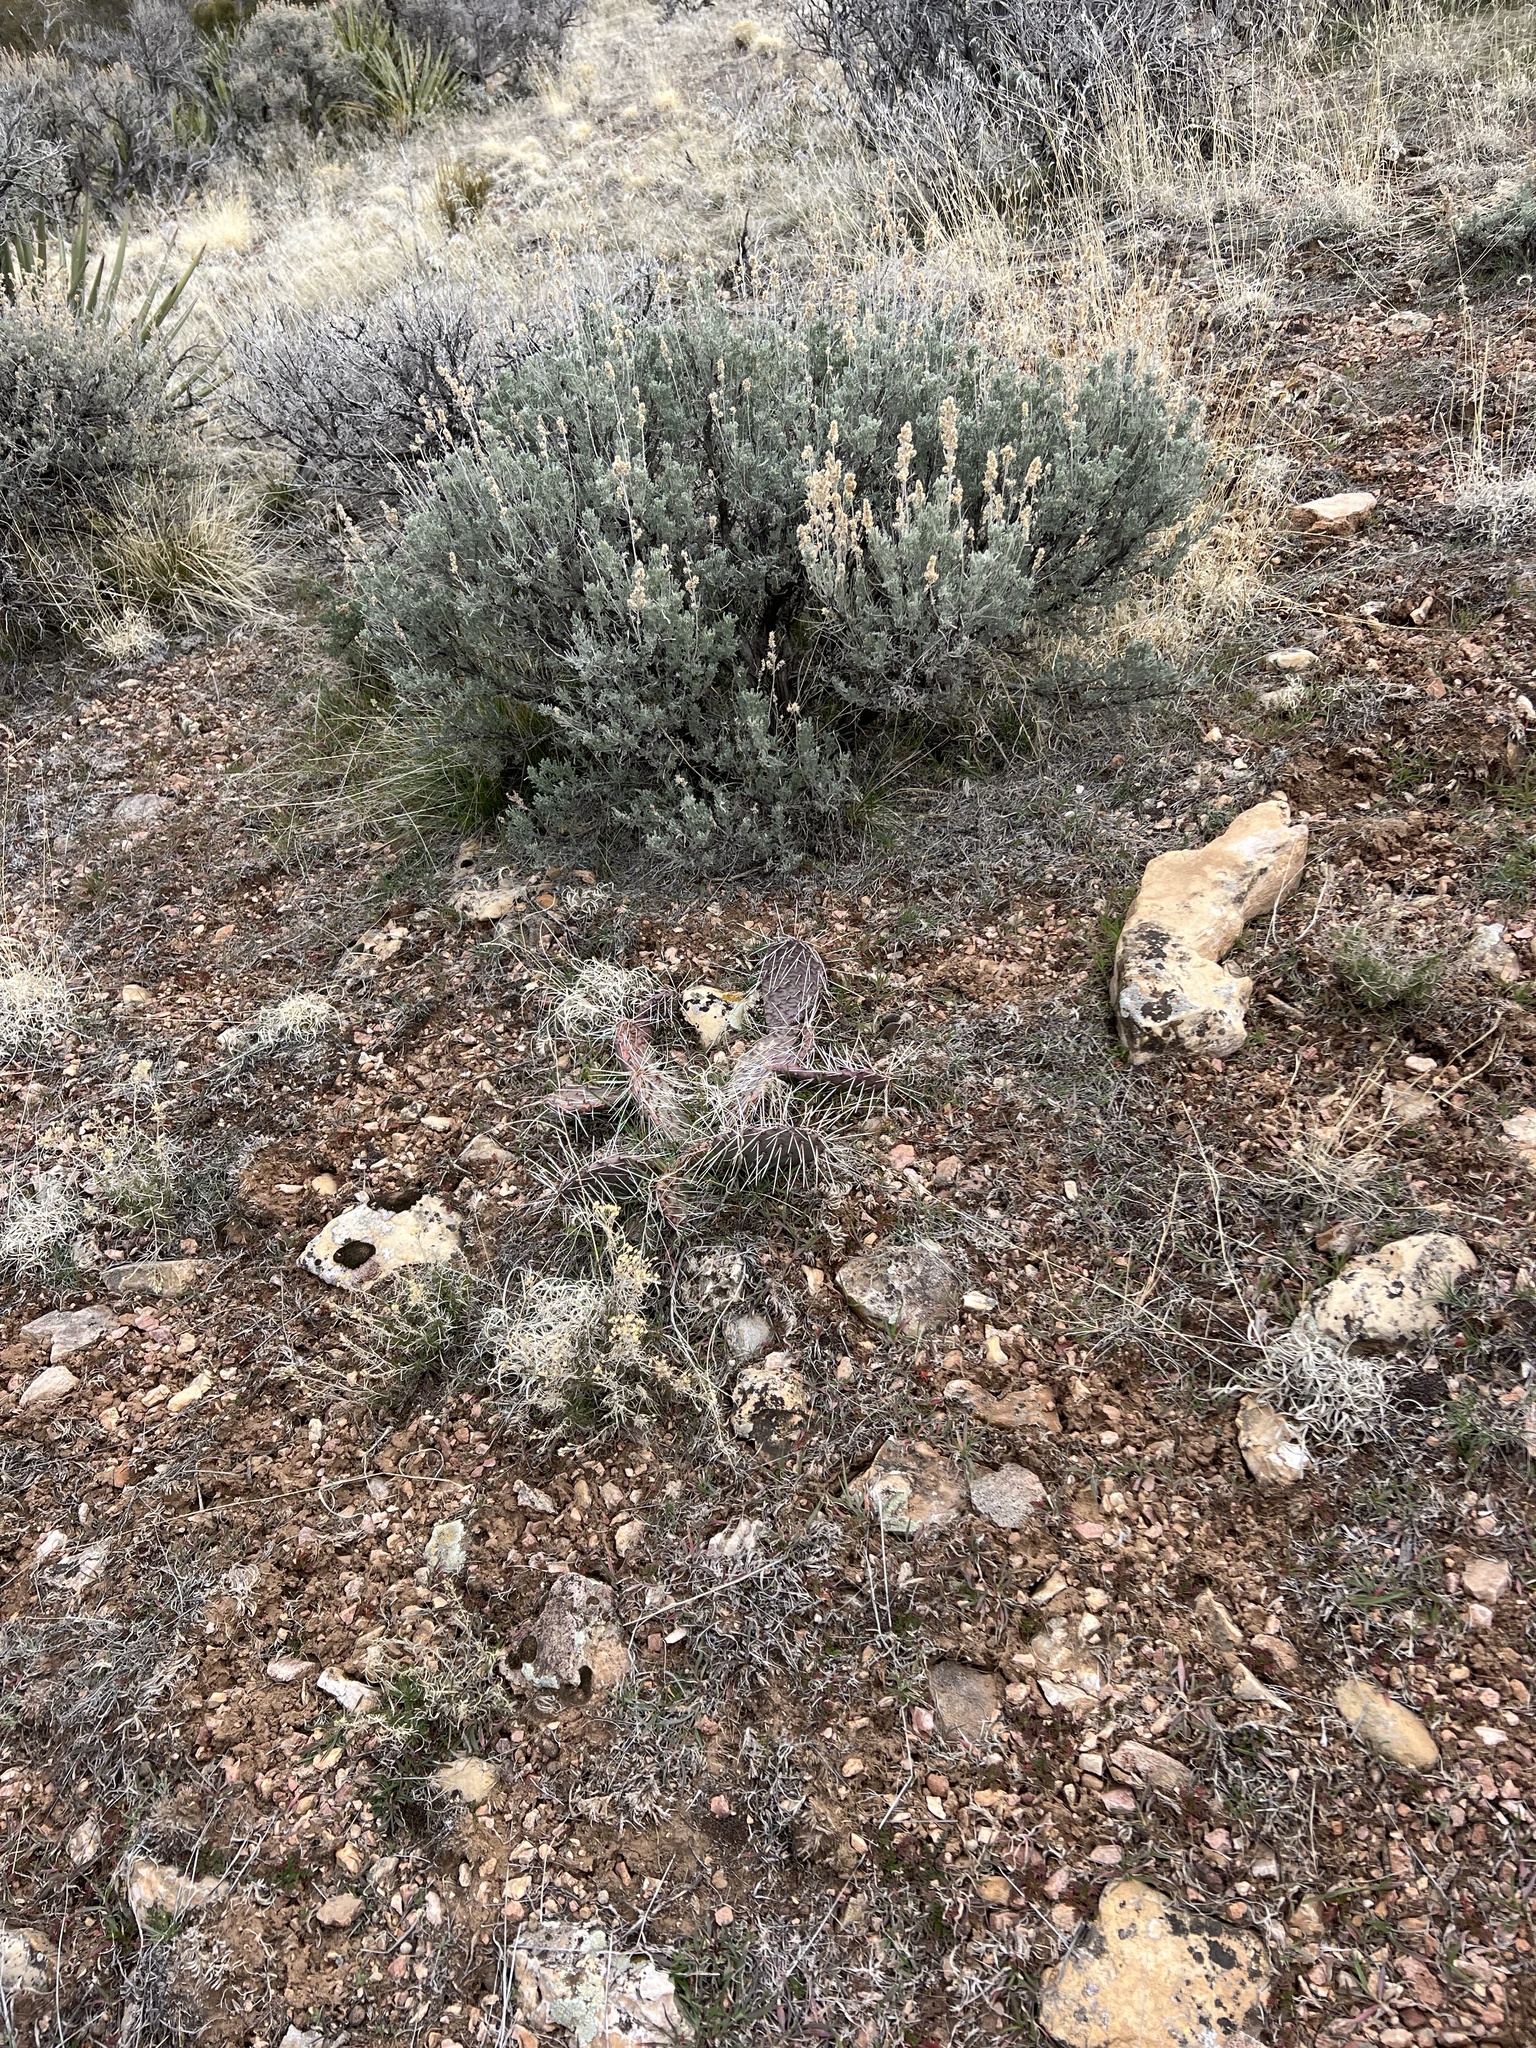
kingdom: Plantae
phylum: Tracheophyta
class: Magnoliopsida
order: Caryophyllales
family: Cactaceae
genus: Opuntia
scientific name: Opuntia phaeacantha
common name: New mexico prickly-pear
